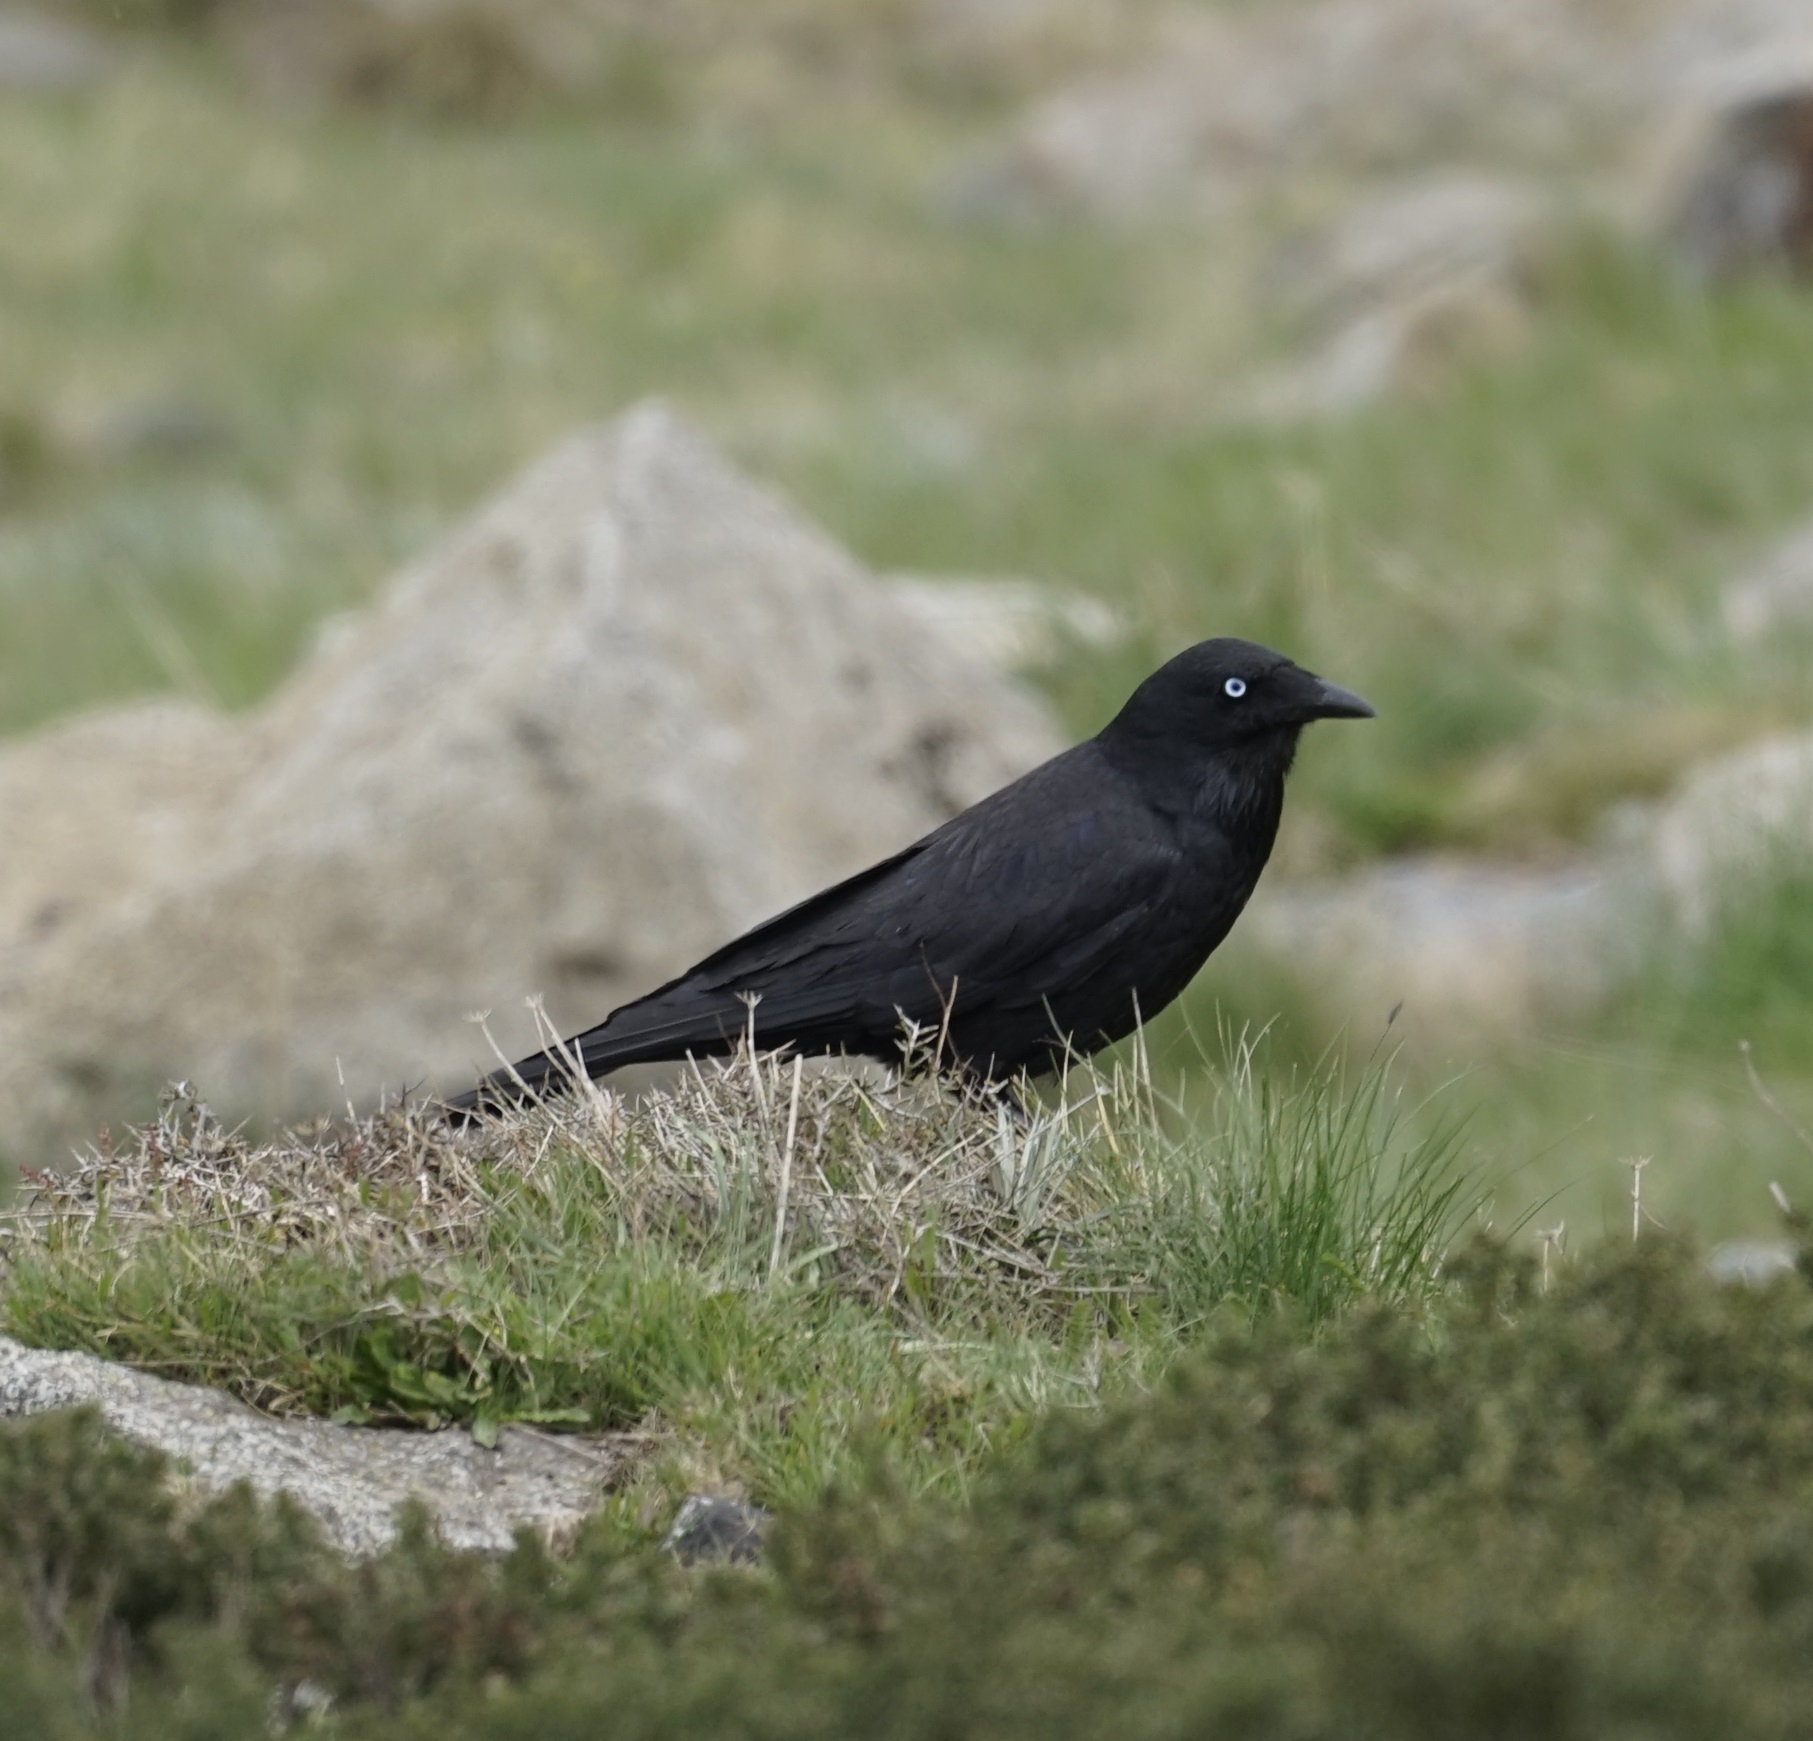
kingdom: Animalia
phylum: Chordata
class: Aves
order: Passeriformes
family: Corvidae
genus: Corvus
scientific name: Corvus mellori
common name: Little raven
